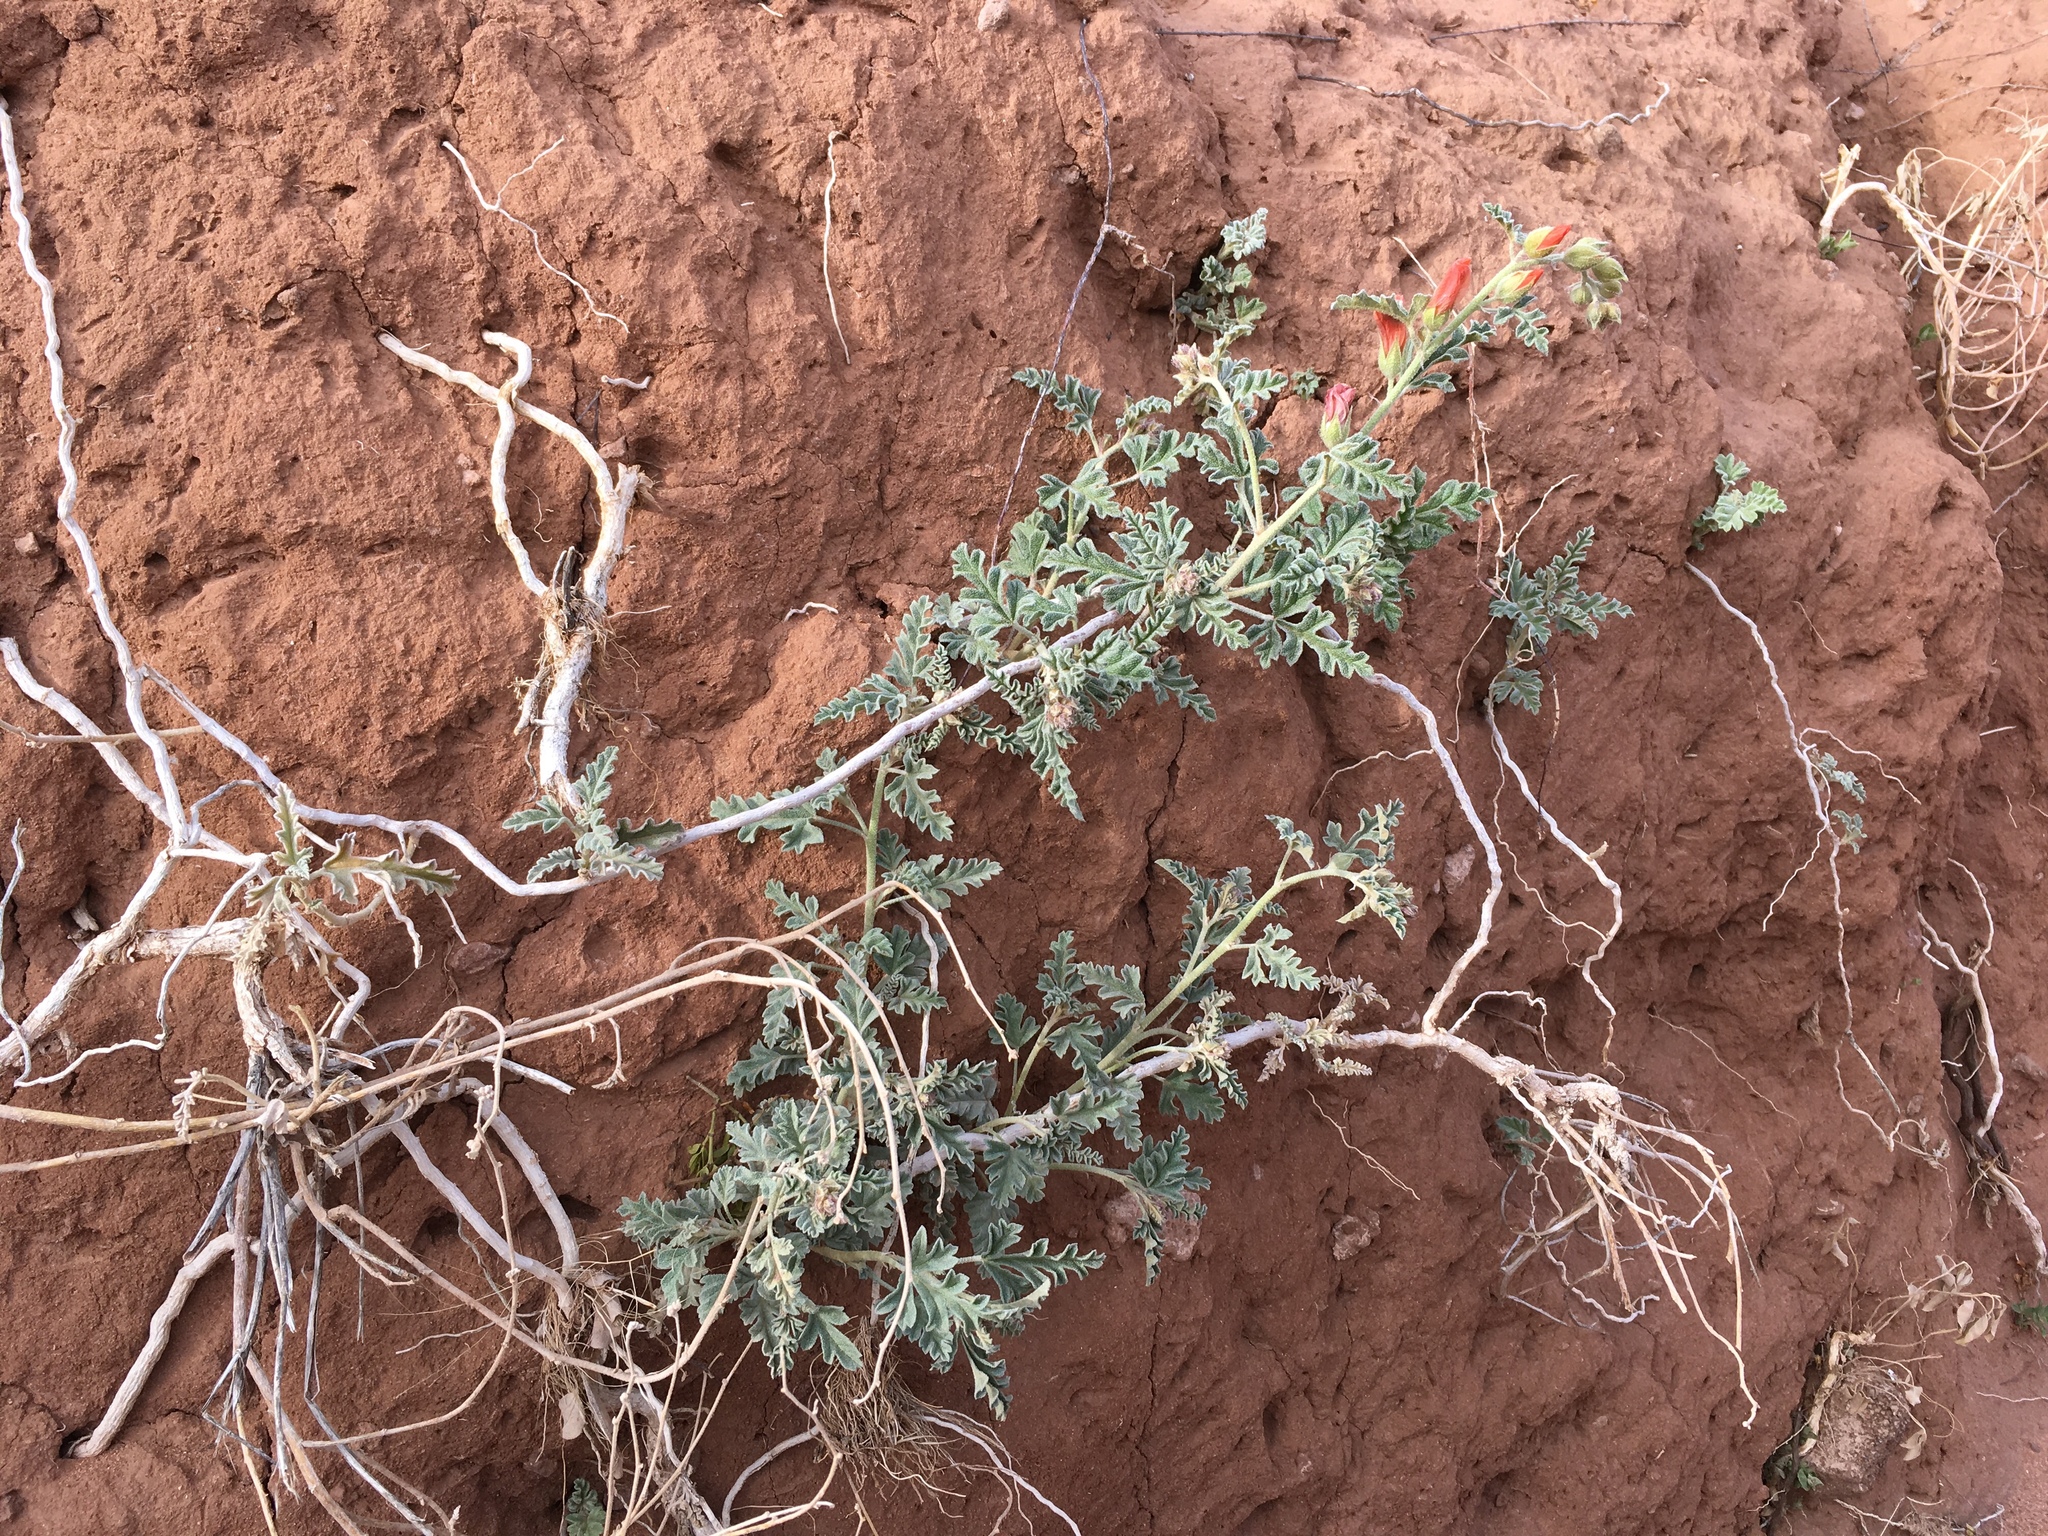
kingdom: Plantae
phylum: Tracheophyta
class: Magnoliopsida
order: Malvales
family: Malvaceae
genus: Sphaeralcea
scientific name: Sphaeralcea hastulata
